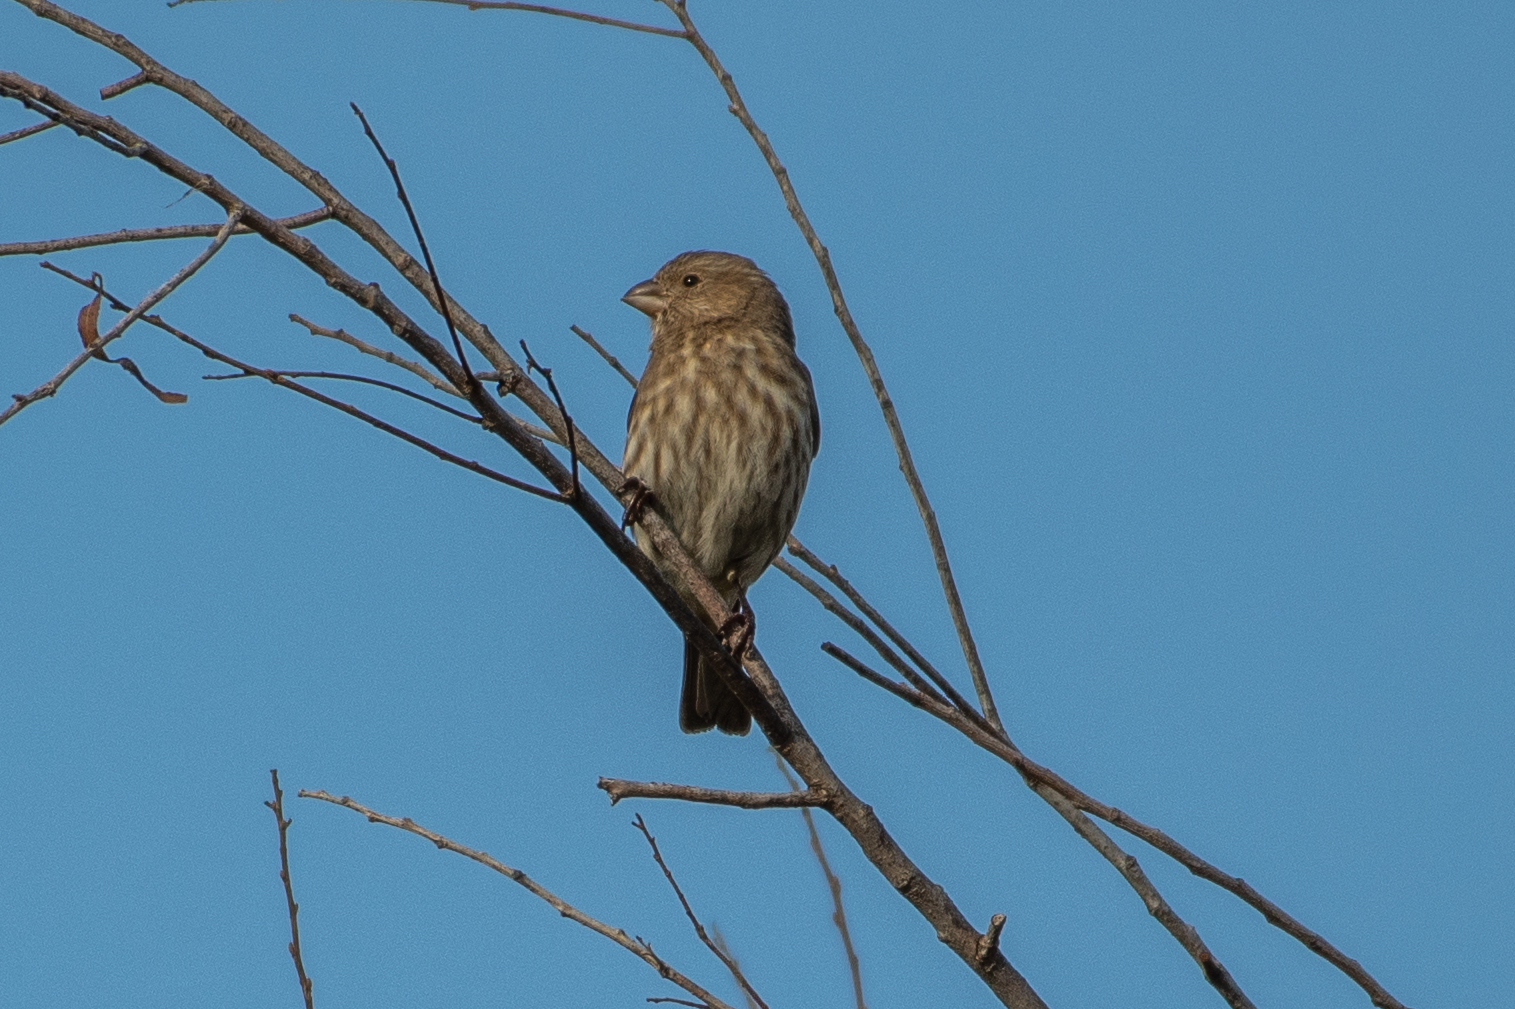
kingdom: Animalia
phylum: Chordata
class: Aves
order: Passeriformes
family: Fringillidae
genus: Haemorhous
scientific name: Haemorhous mexicanus
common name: House finch
